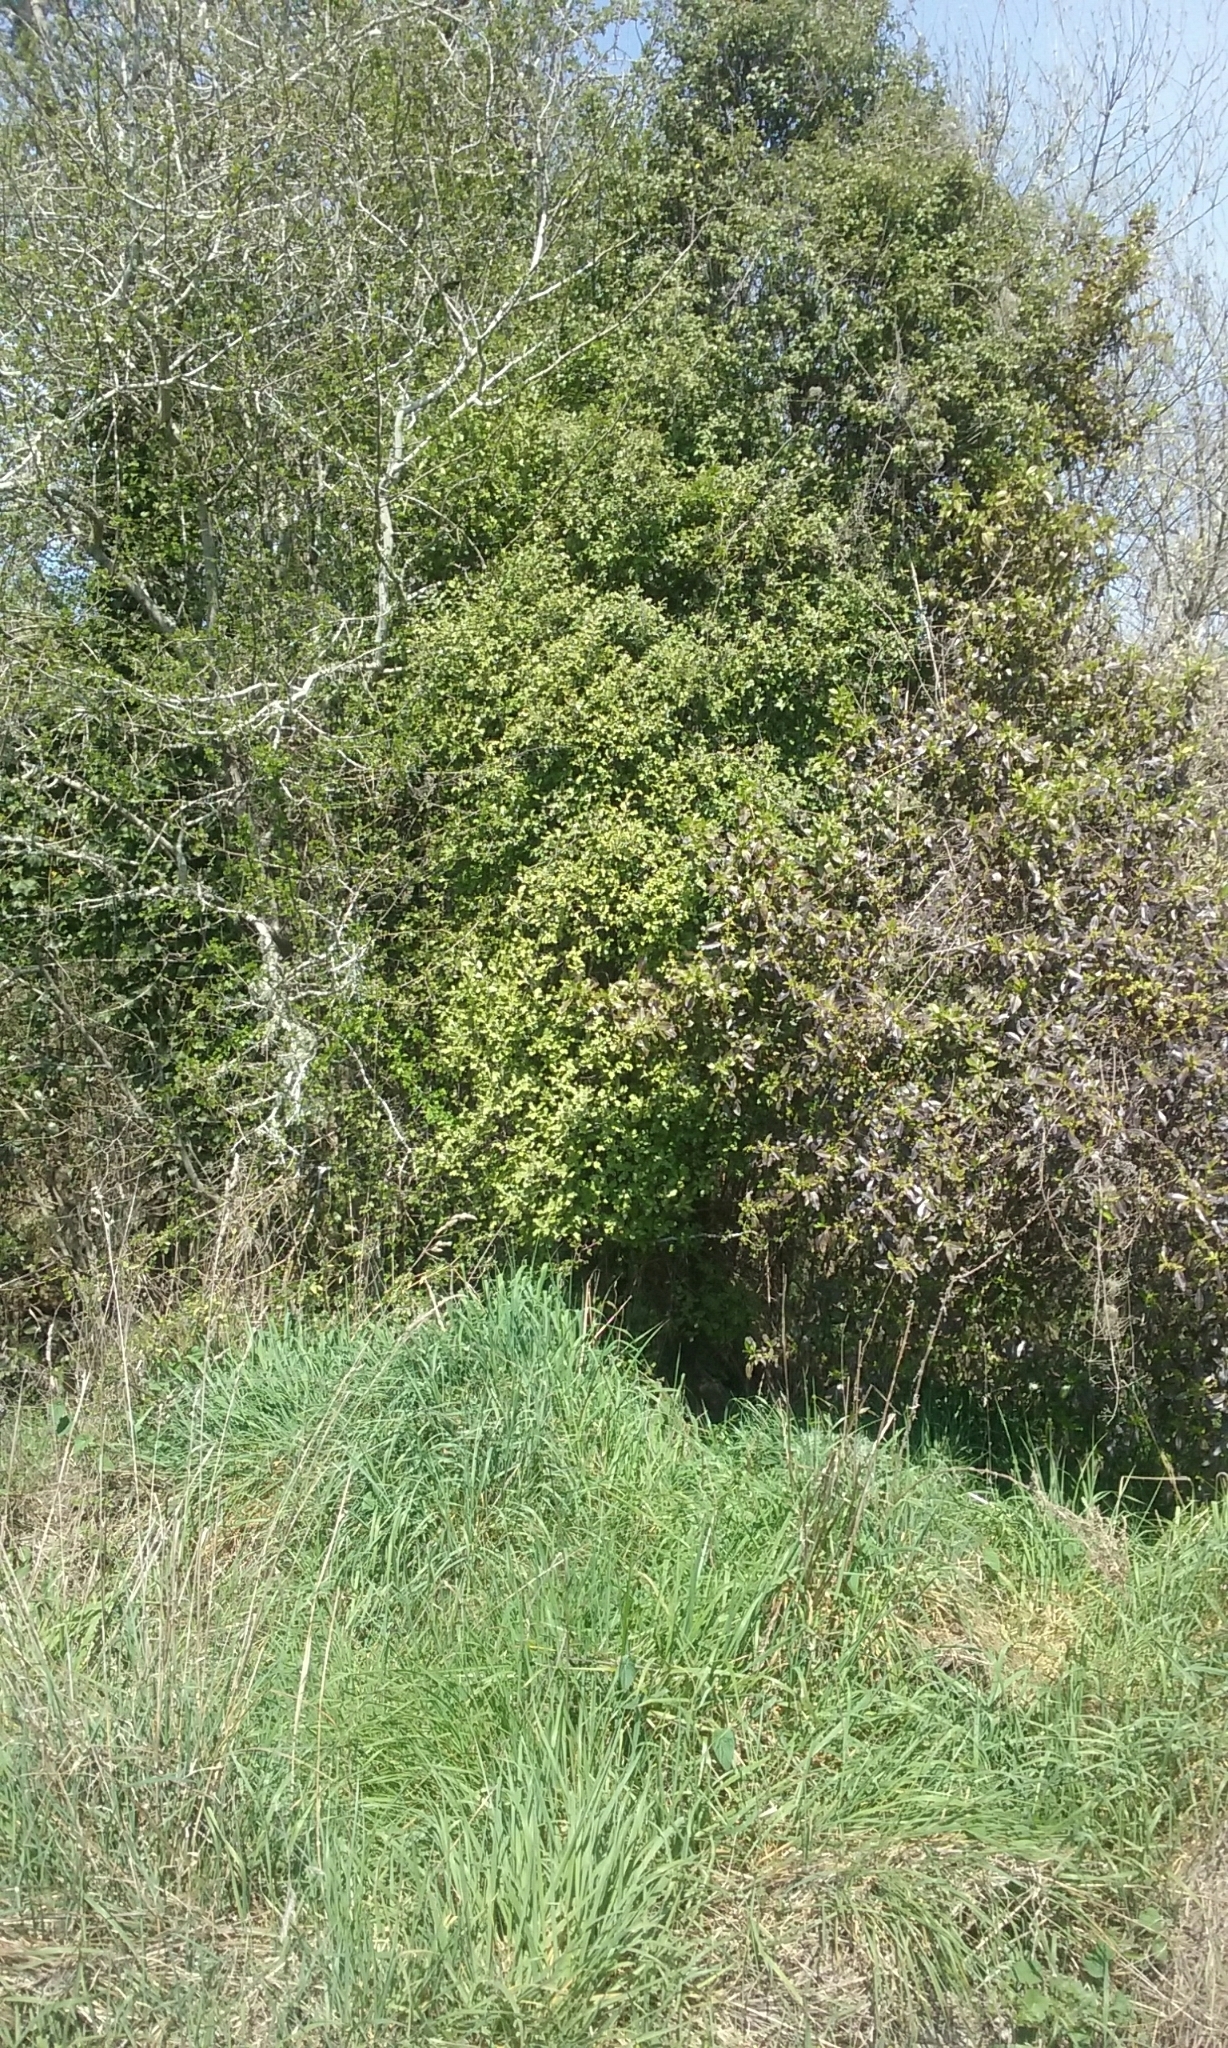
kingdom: Plantae
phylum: Tracheophyta
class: Magnoliopsida
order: Apiales
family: Pittosporaceae
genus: Pittosporum
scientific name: Pittosporum tenuifolium
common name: Kohuhu
